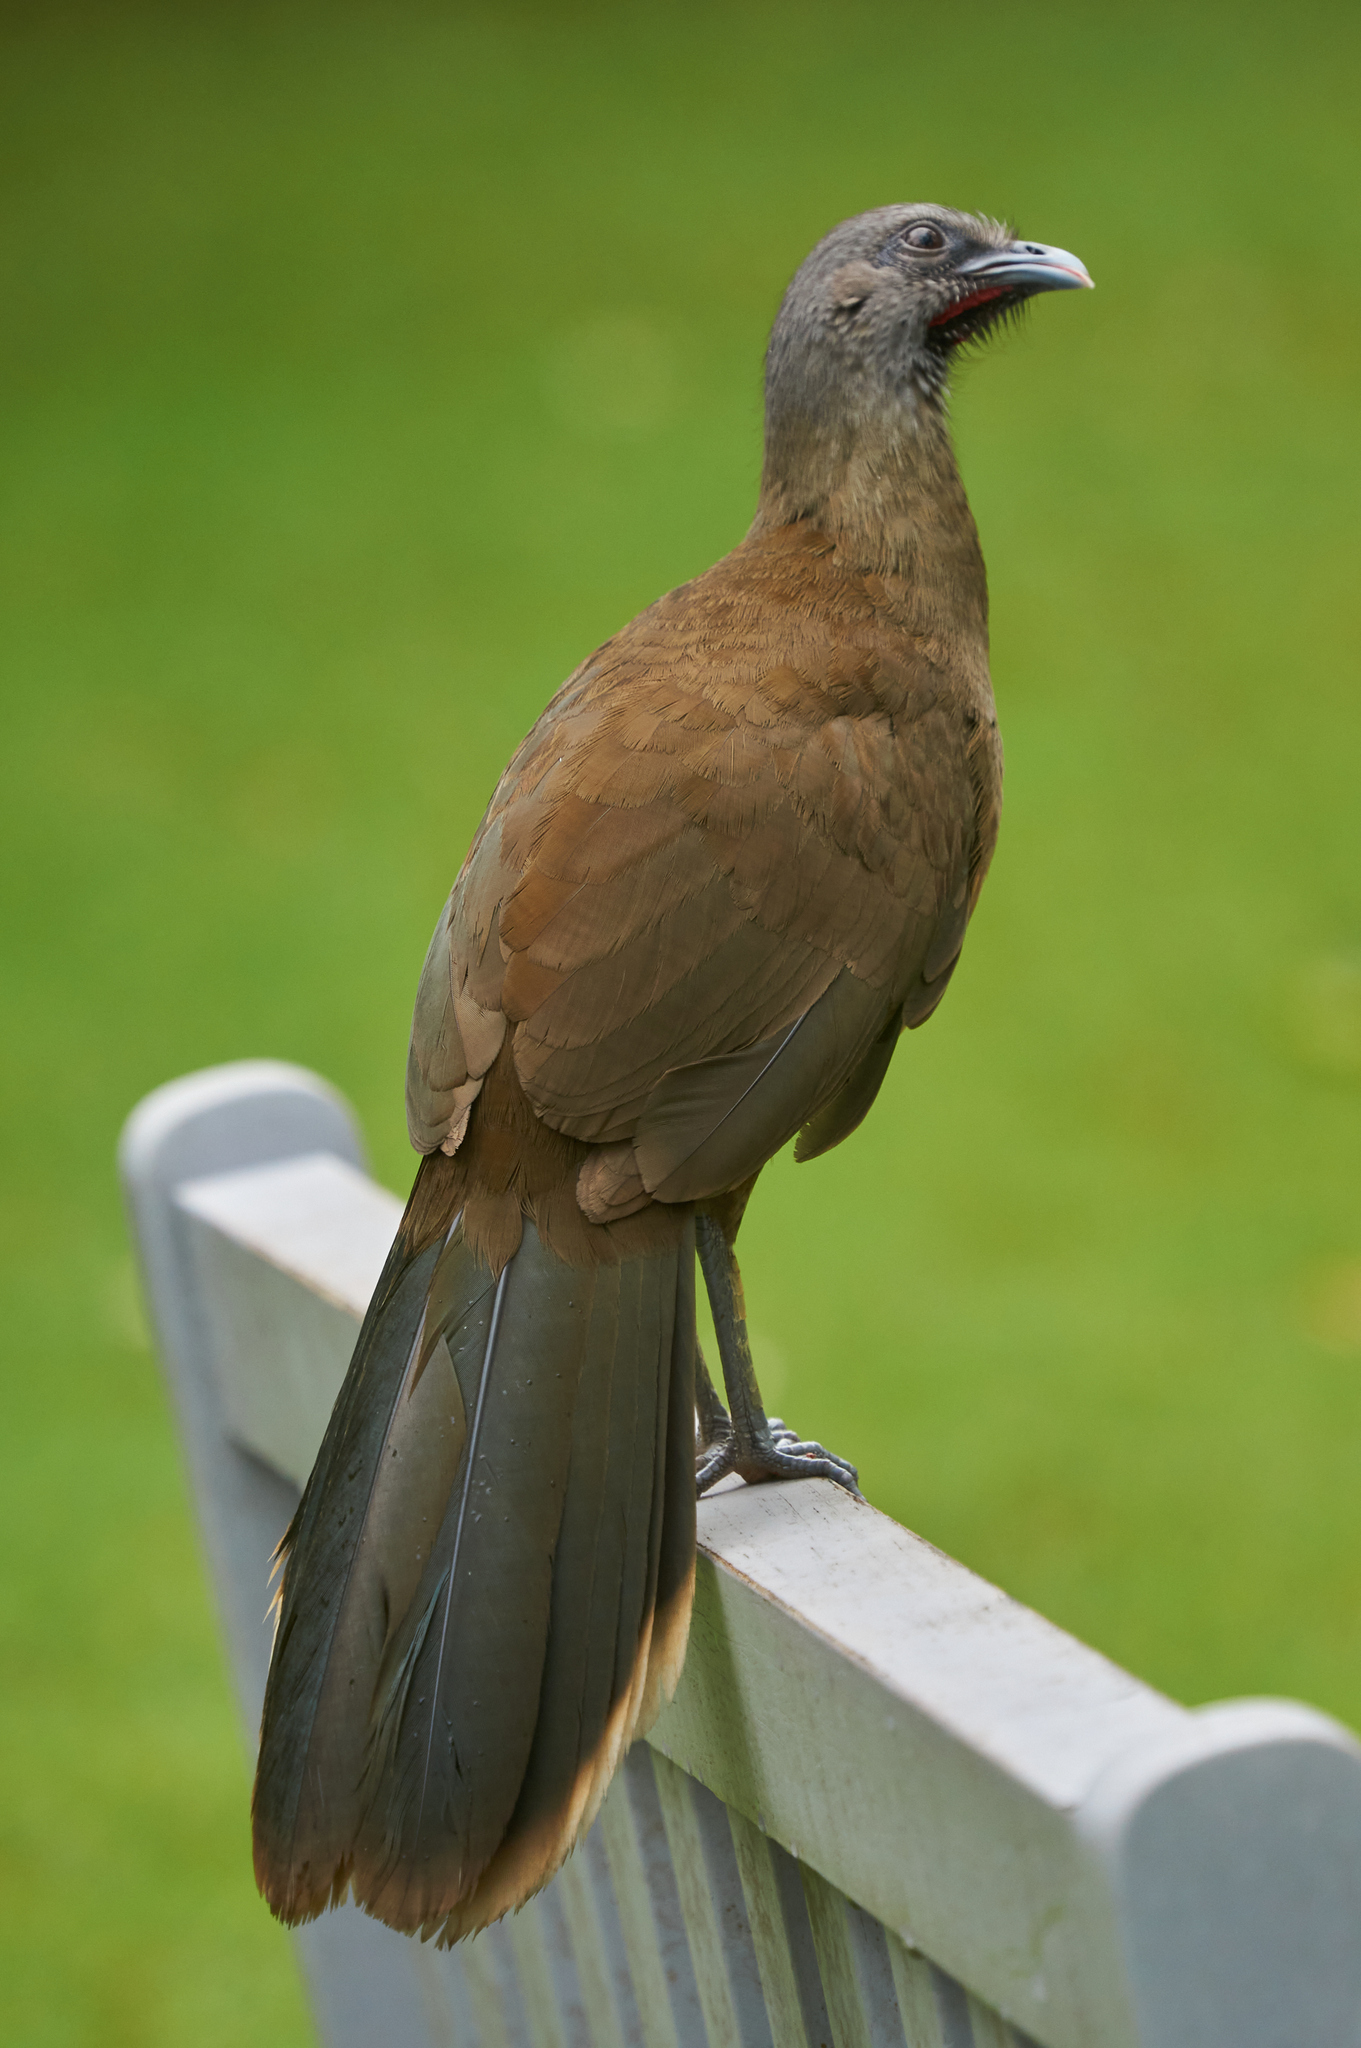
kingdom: Animalia
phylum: Chordata
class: Aves
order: Galliformes
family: Cracidae
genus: Ortalis
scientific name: Ortalis vetula
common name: Plain chachalaca
